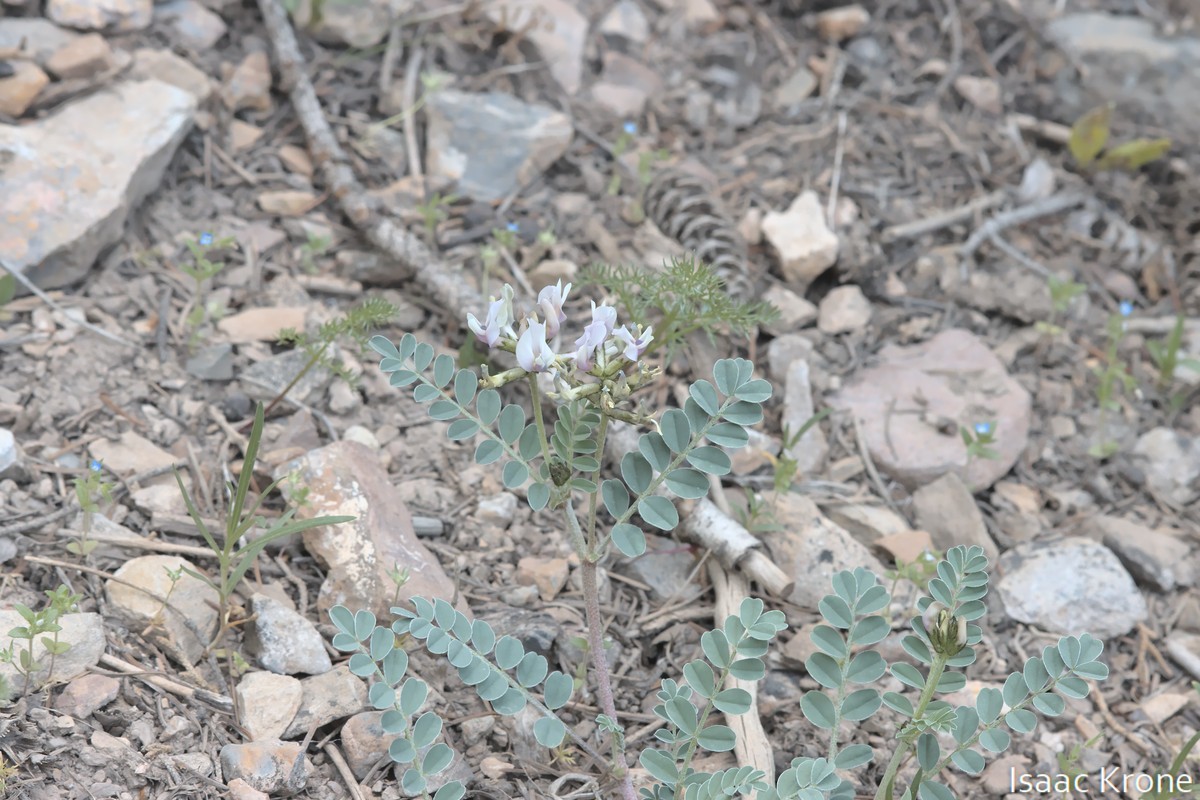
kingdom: Plantae
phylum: Tracheophyta
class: Magnoliopsida
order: Fabales
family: Fabaceae
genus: Astragalus
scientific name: Astragalus cibarius
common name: Browse milk-vetch
